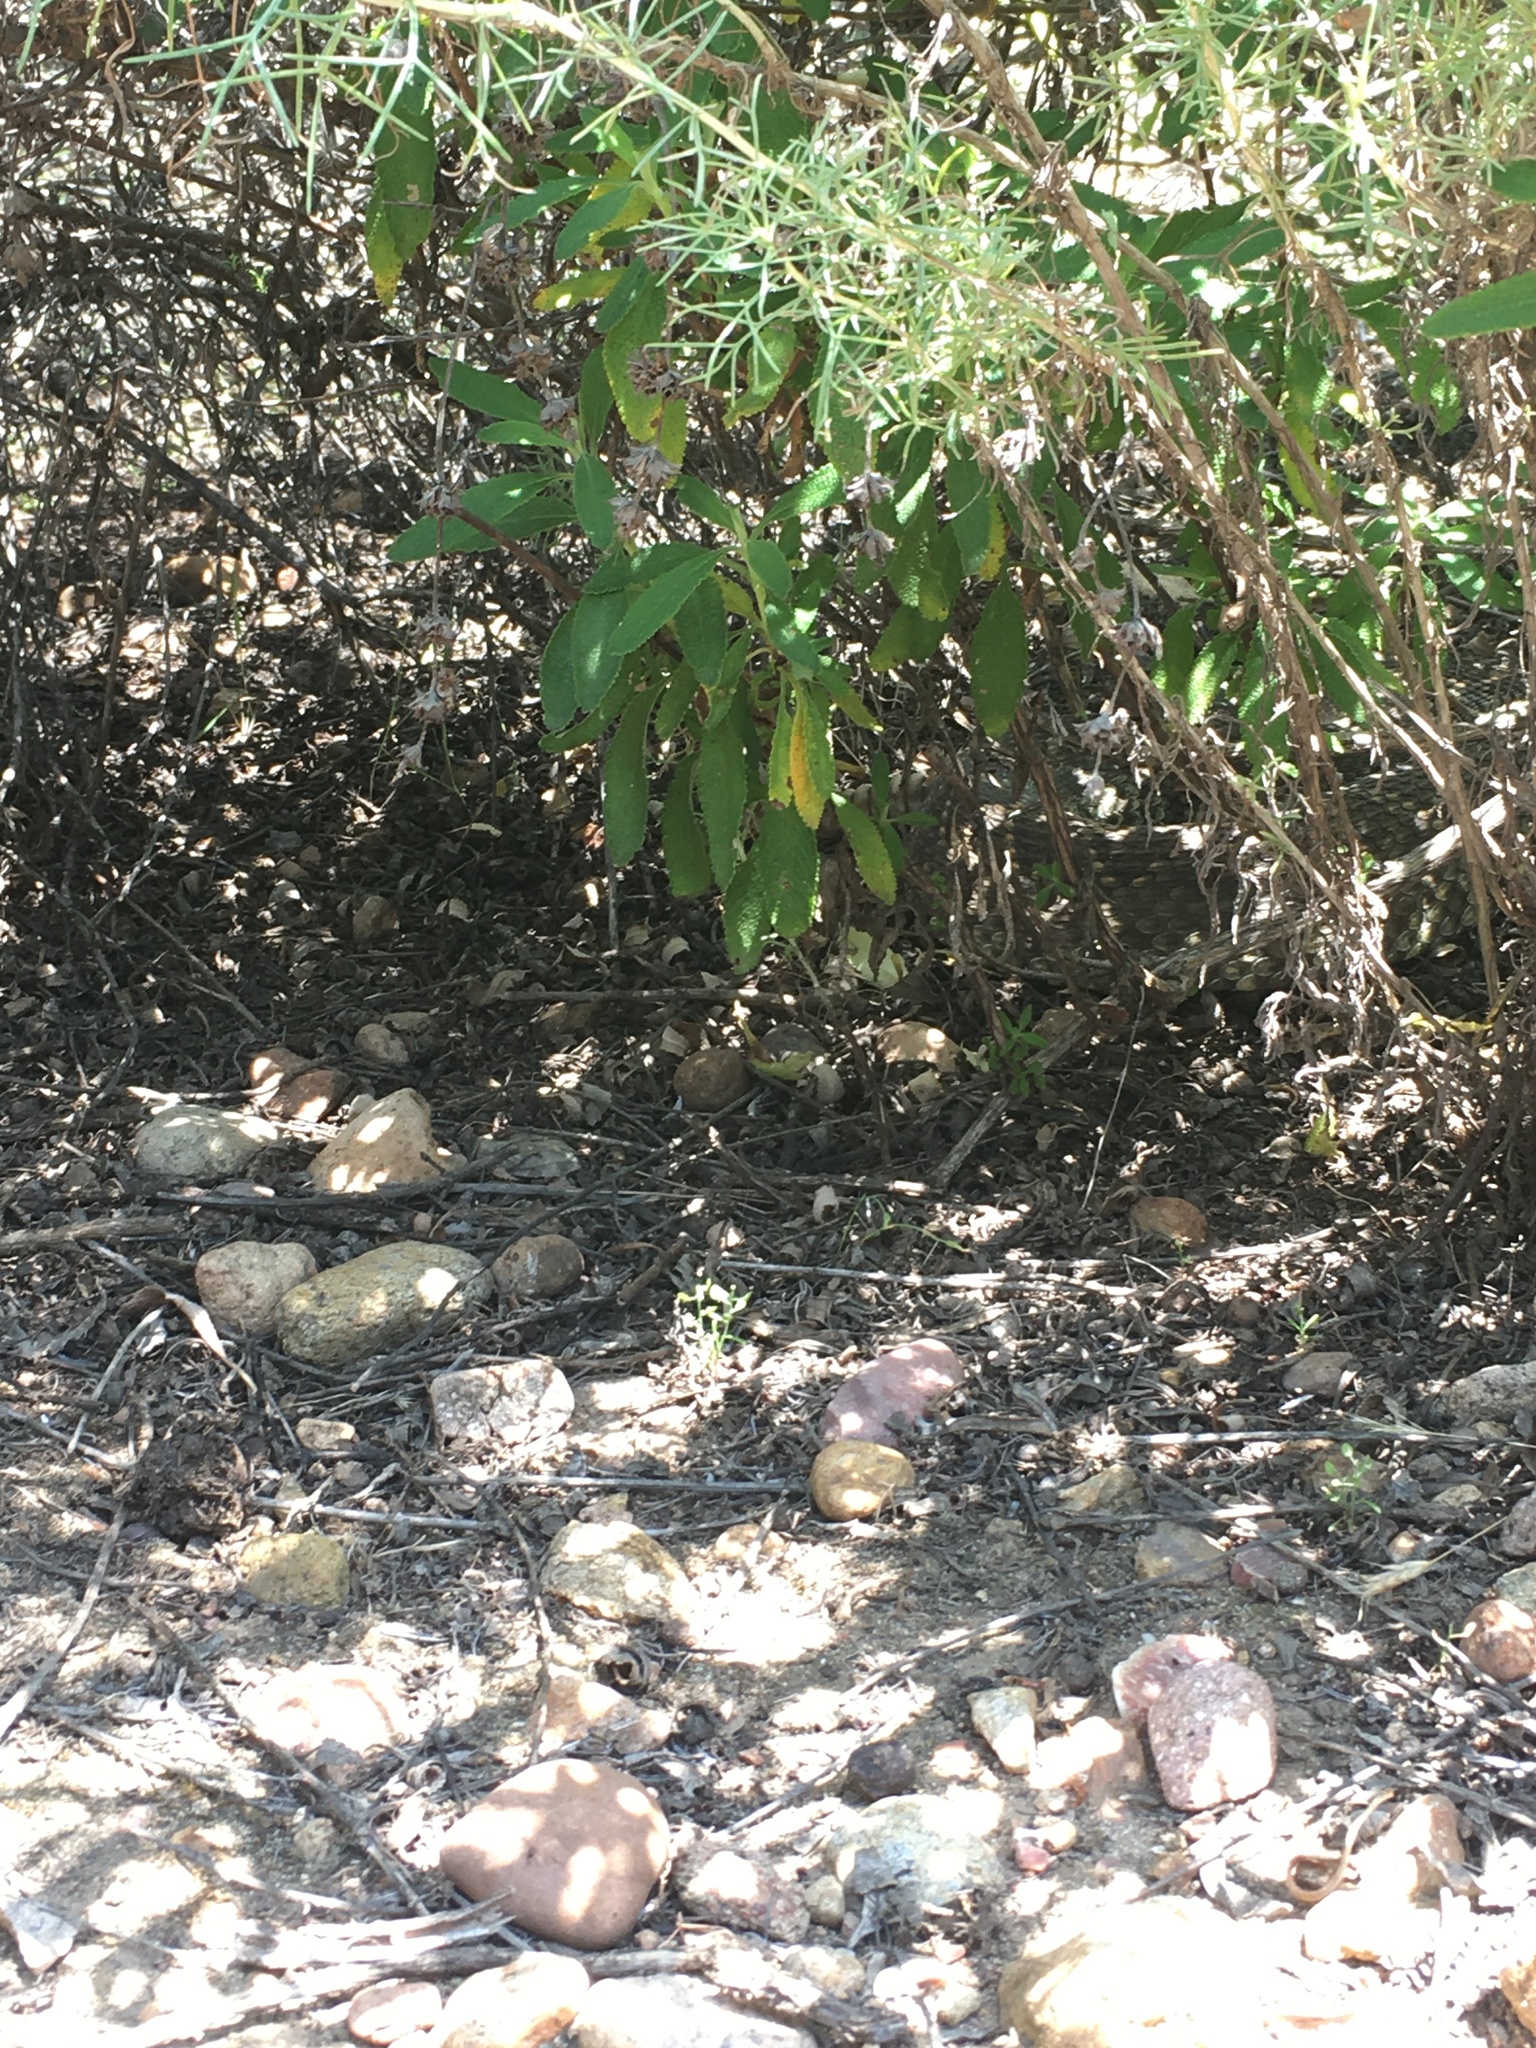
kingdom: Animalia
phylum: Chordata
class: Squamata
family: Viperidae
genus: Crotalus
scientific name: Crotalus oreganus
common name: Abyssus
